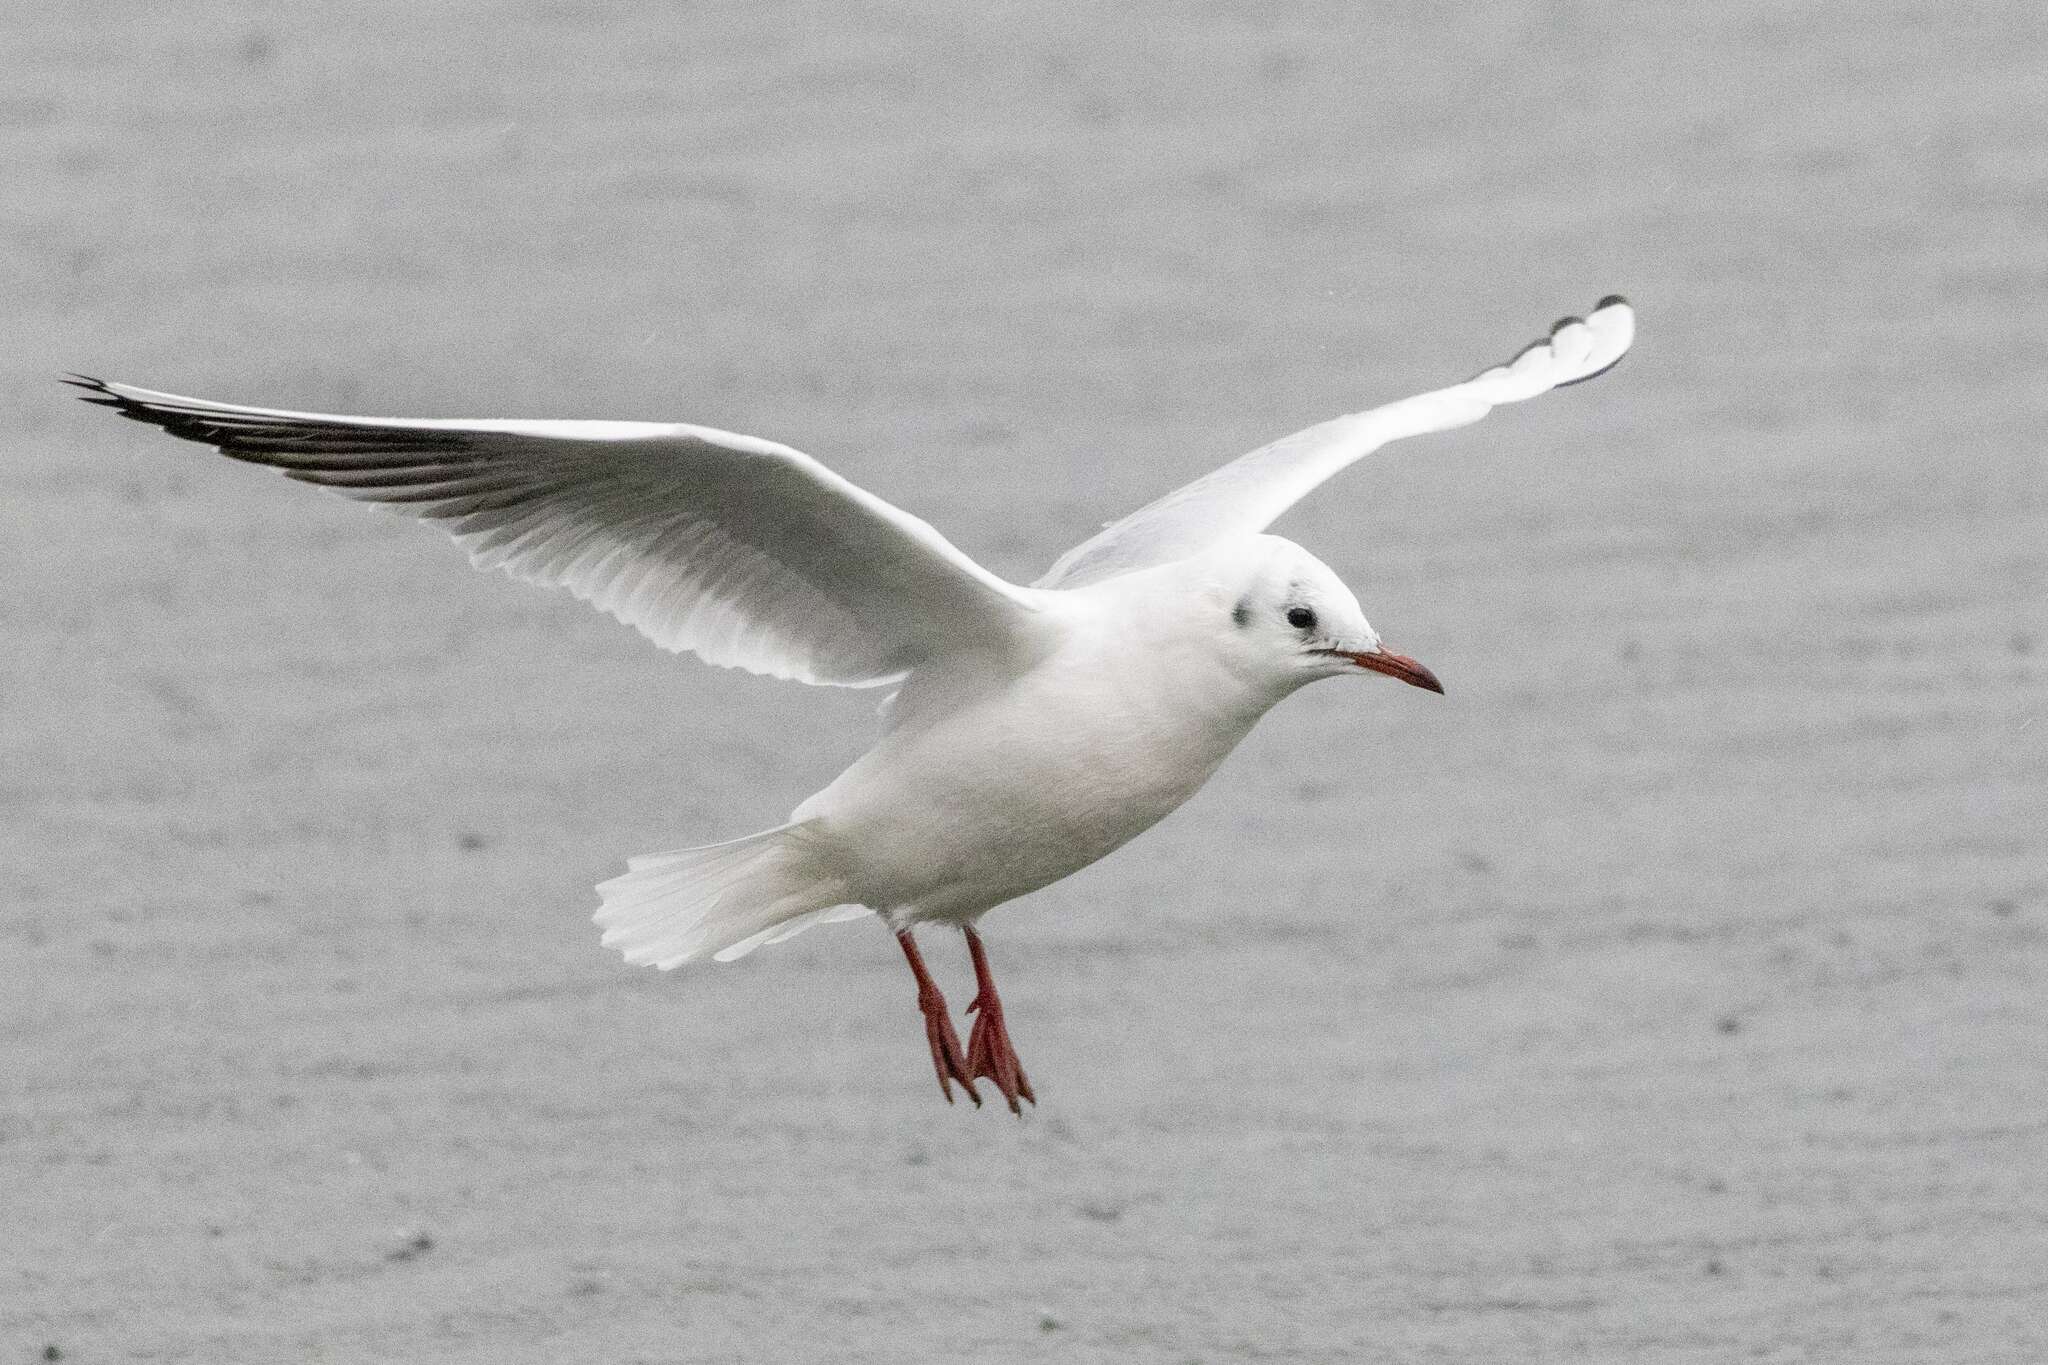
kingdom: Animalia
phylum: Chordata
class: Aves
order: Charadriiformes
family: Laridae
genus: Chroicocephalus
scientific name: Chroicocephalus ridibundus
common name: Black-headed gull
